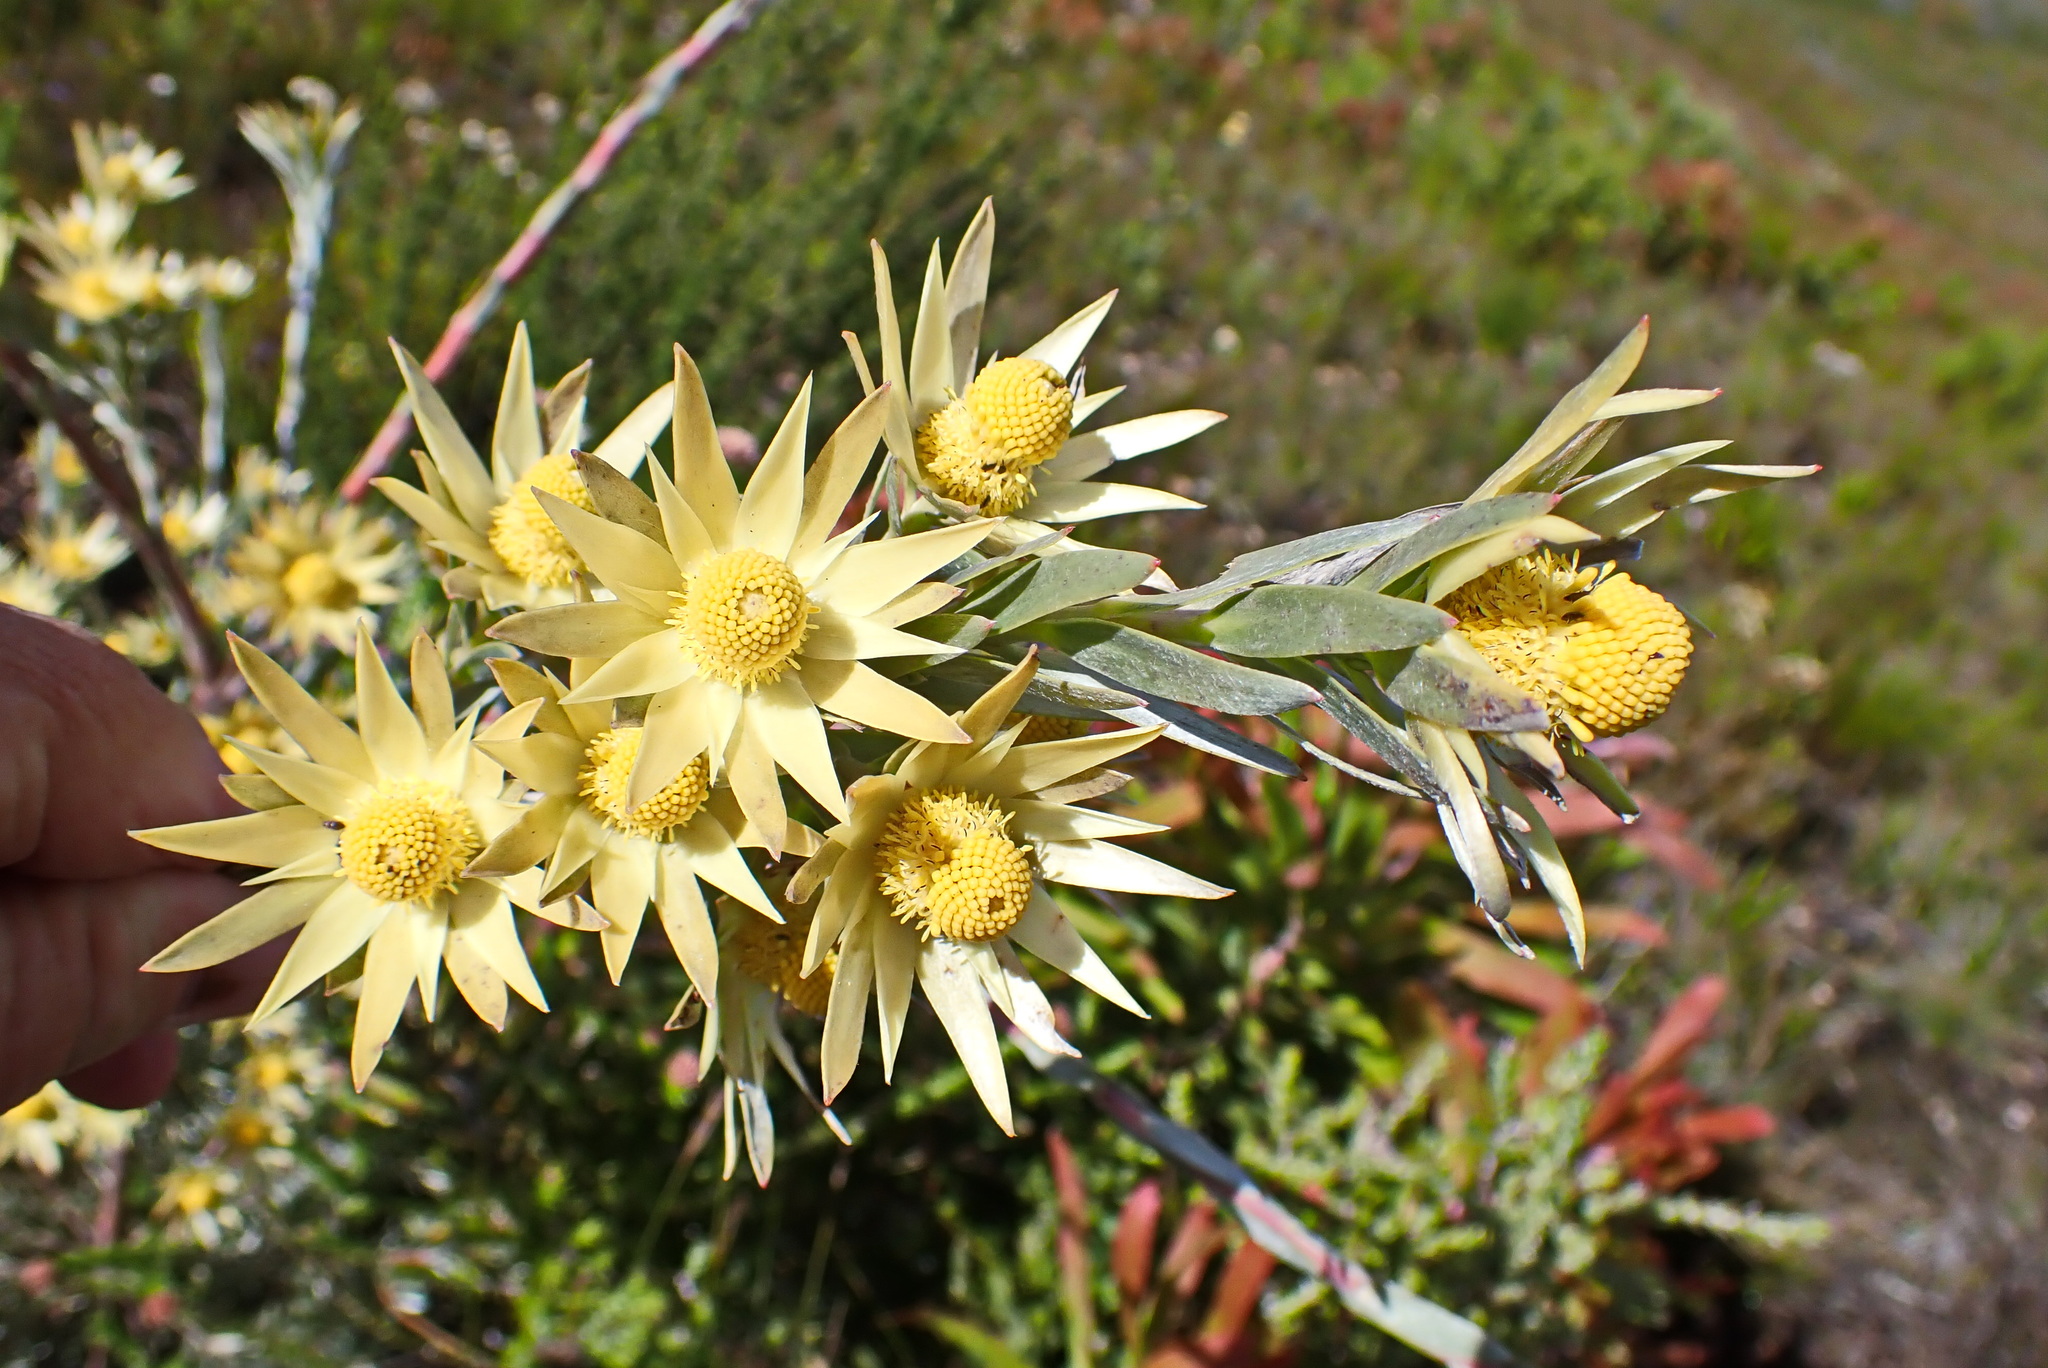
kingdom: Plantae
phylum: Tracheophyta
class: Magnoliopsida
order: Proteales
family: Proteaceae
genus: Leucadendron
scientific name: Leucadendron uliginosum
